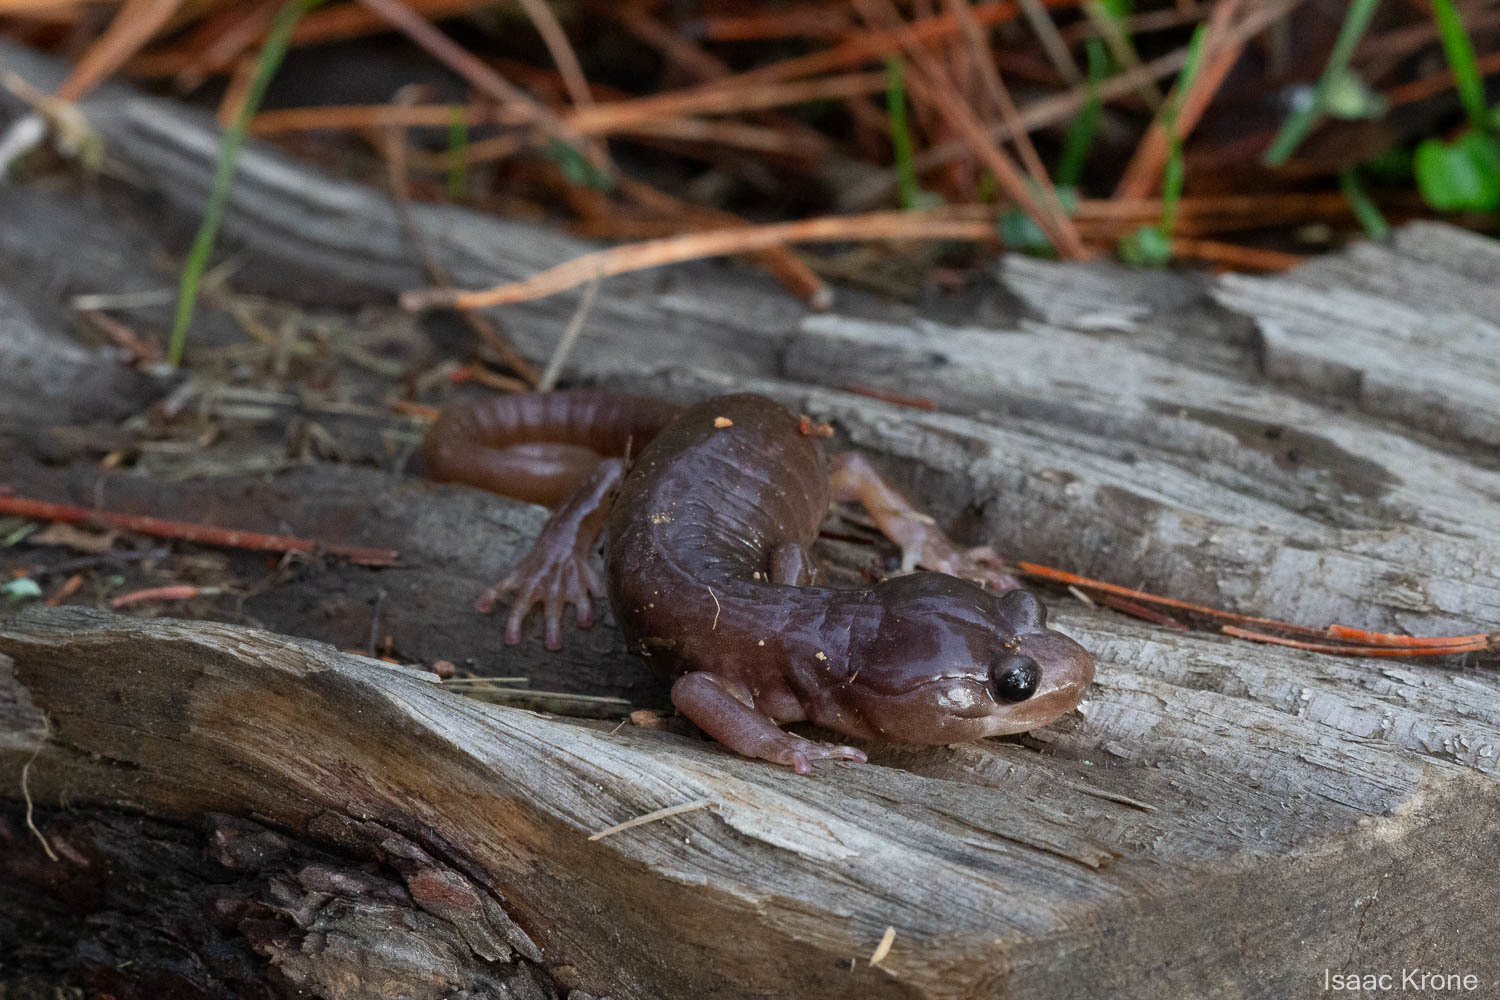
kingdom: Animalia
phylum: Chordata
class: Amphibia
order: Caudata
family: Plethodontidae
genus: Aneides
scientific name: Aneides lugubris
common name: Arboreal salamander
